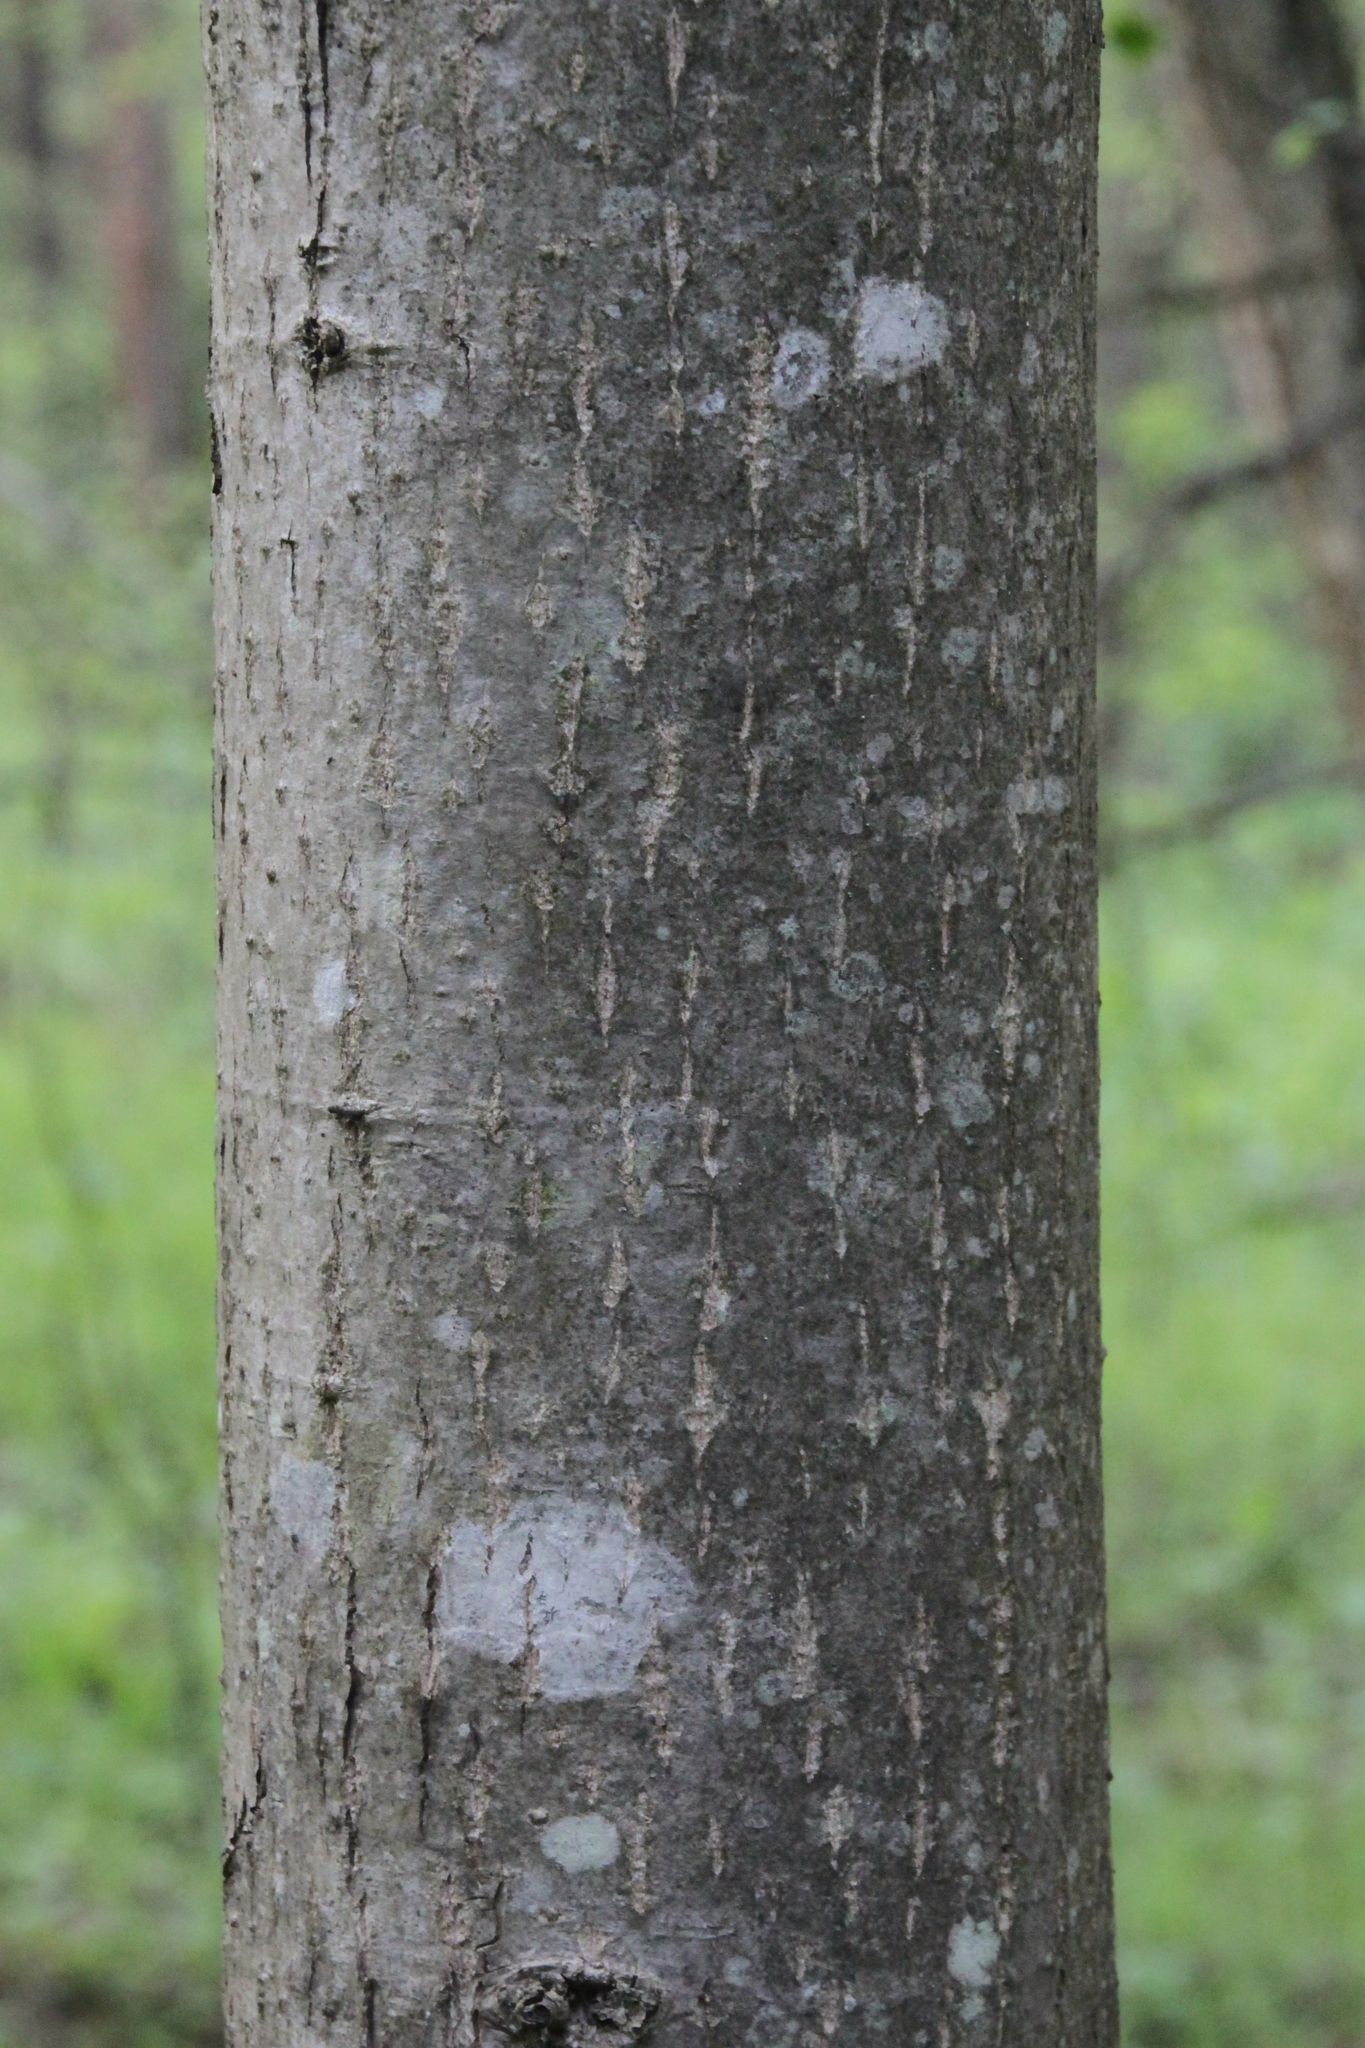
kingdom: Plantae
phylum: Tracheophyta
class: Magnoliopsida
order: Malvales
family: Malvaceae
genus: Tilia
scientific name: Tilia cordata
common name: Small-leaved lime
